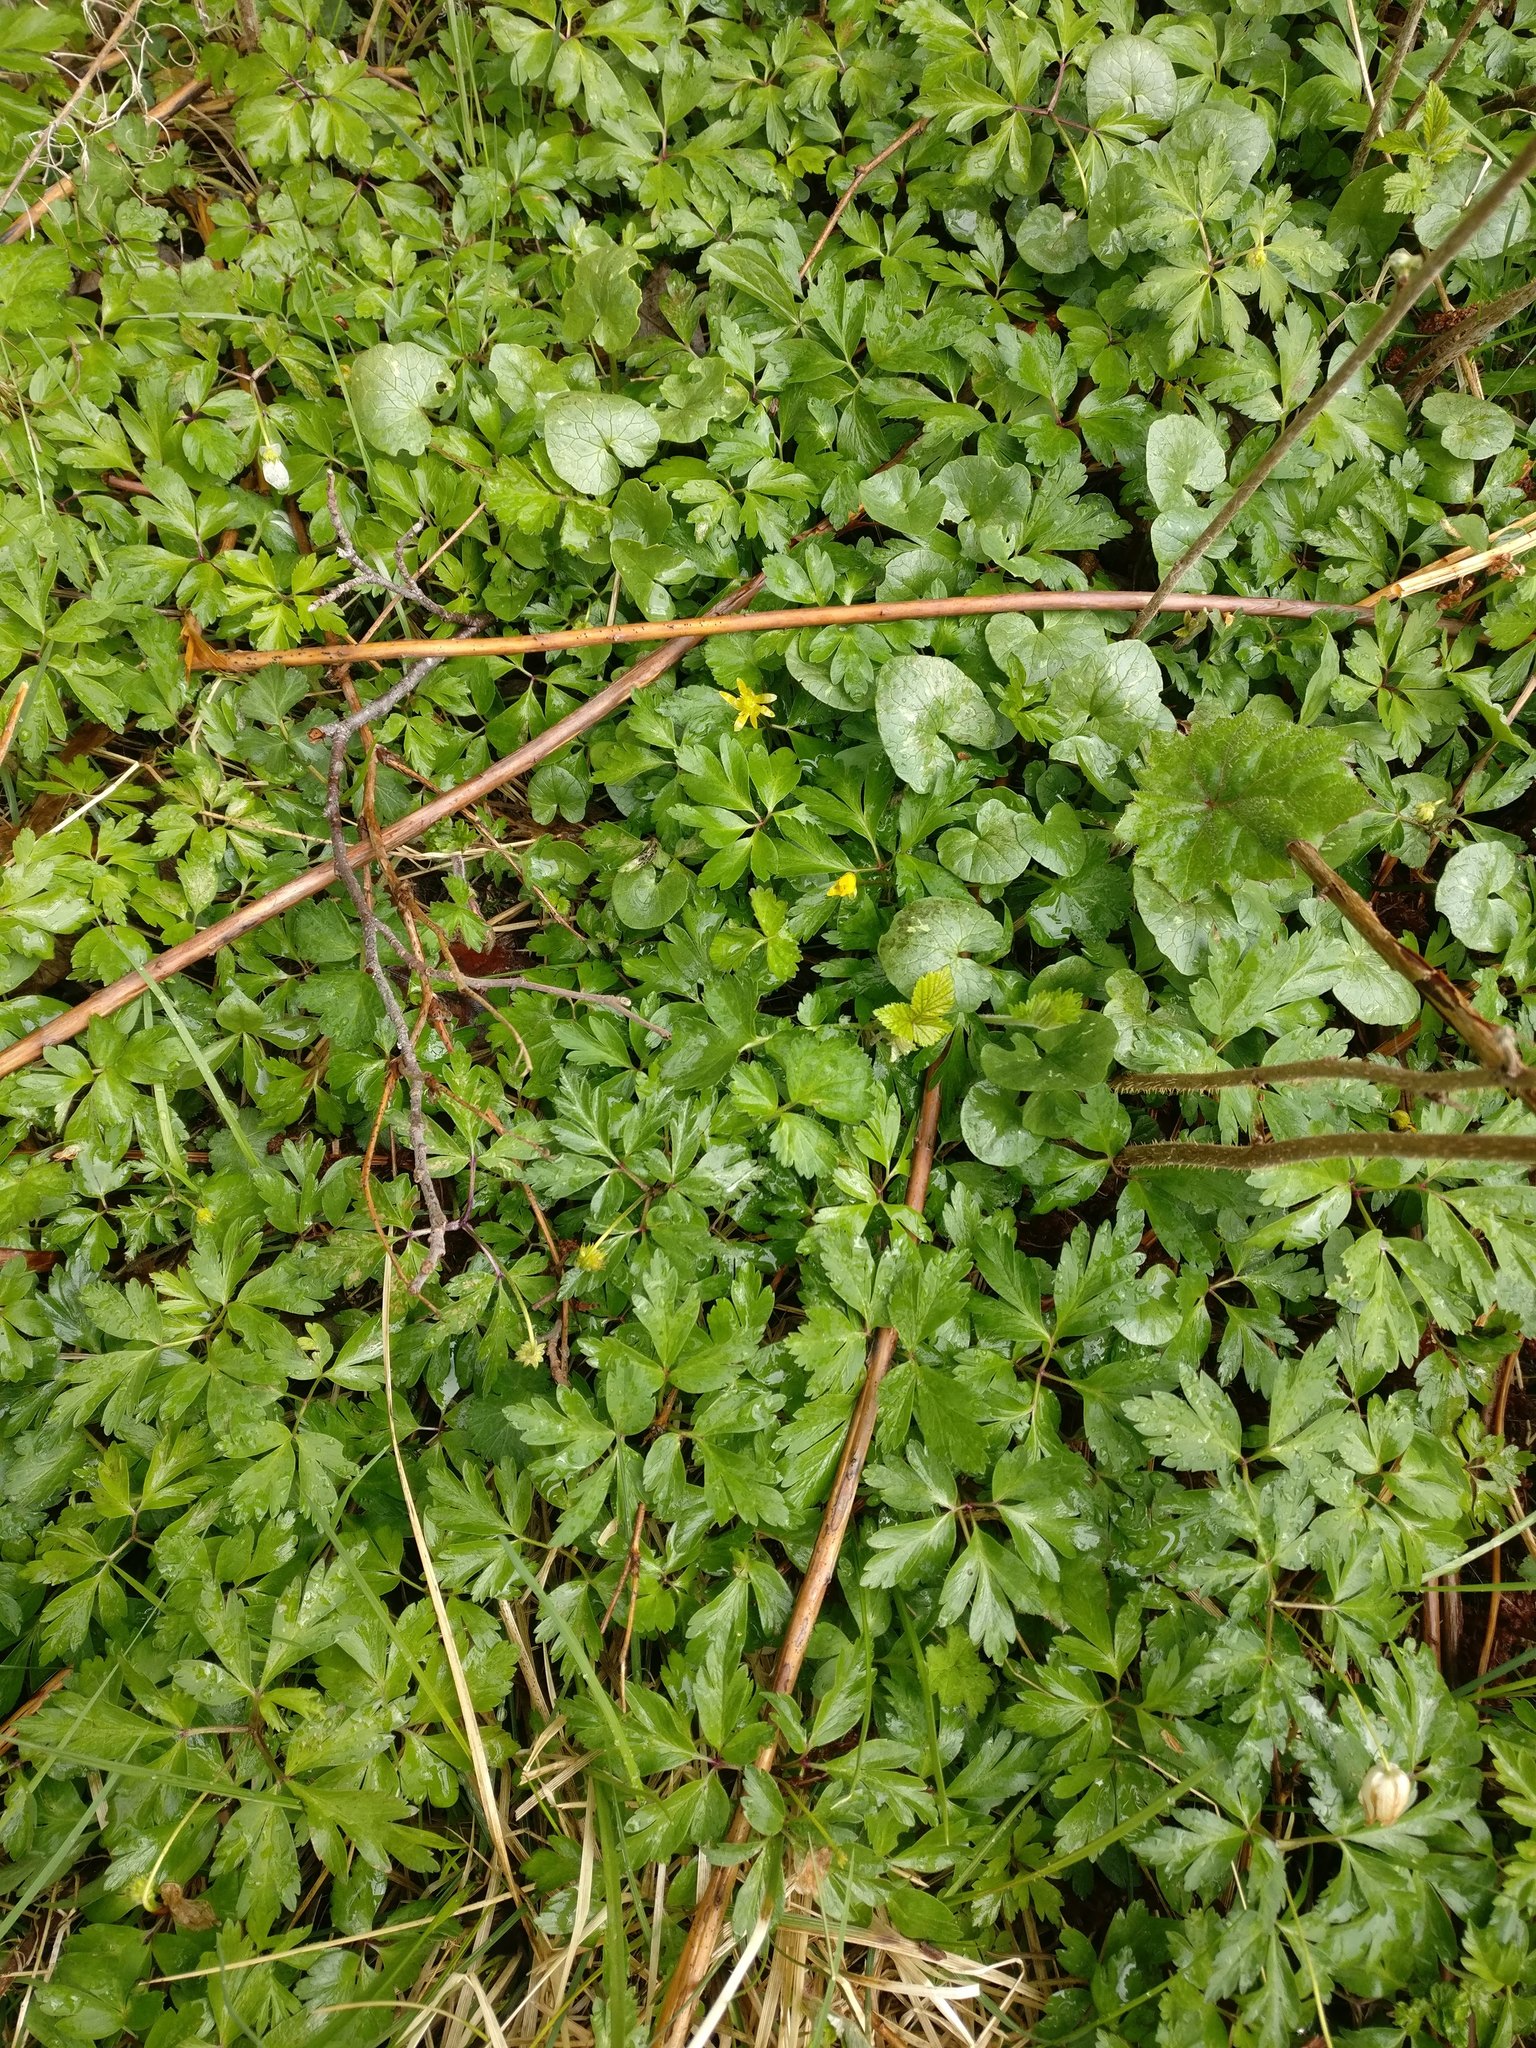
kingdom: Plantae
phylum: Tracheophyta
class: Magnoliopsida
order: Ranunculales
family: Ranunculaceae
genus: Ficaria
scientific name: Ficaria verna
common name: Lesser celandine
